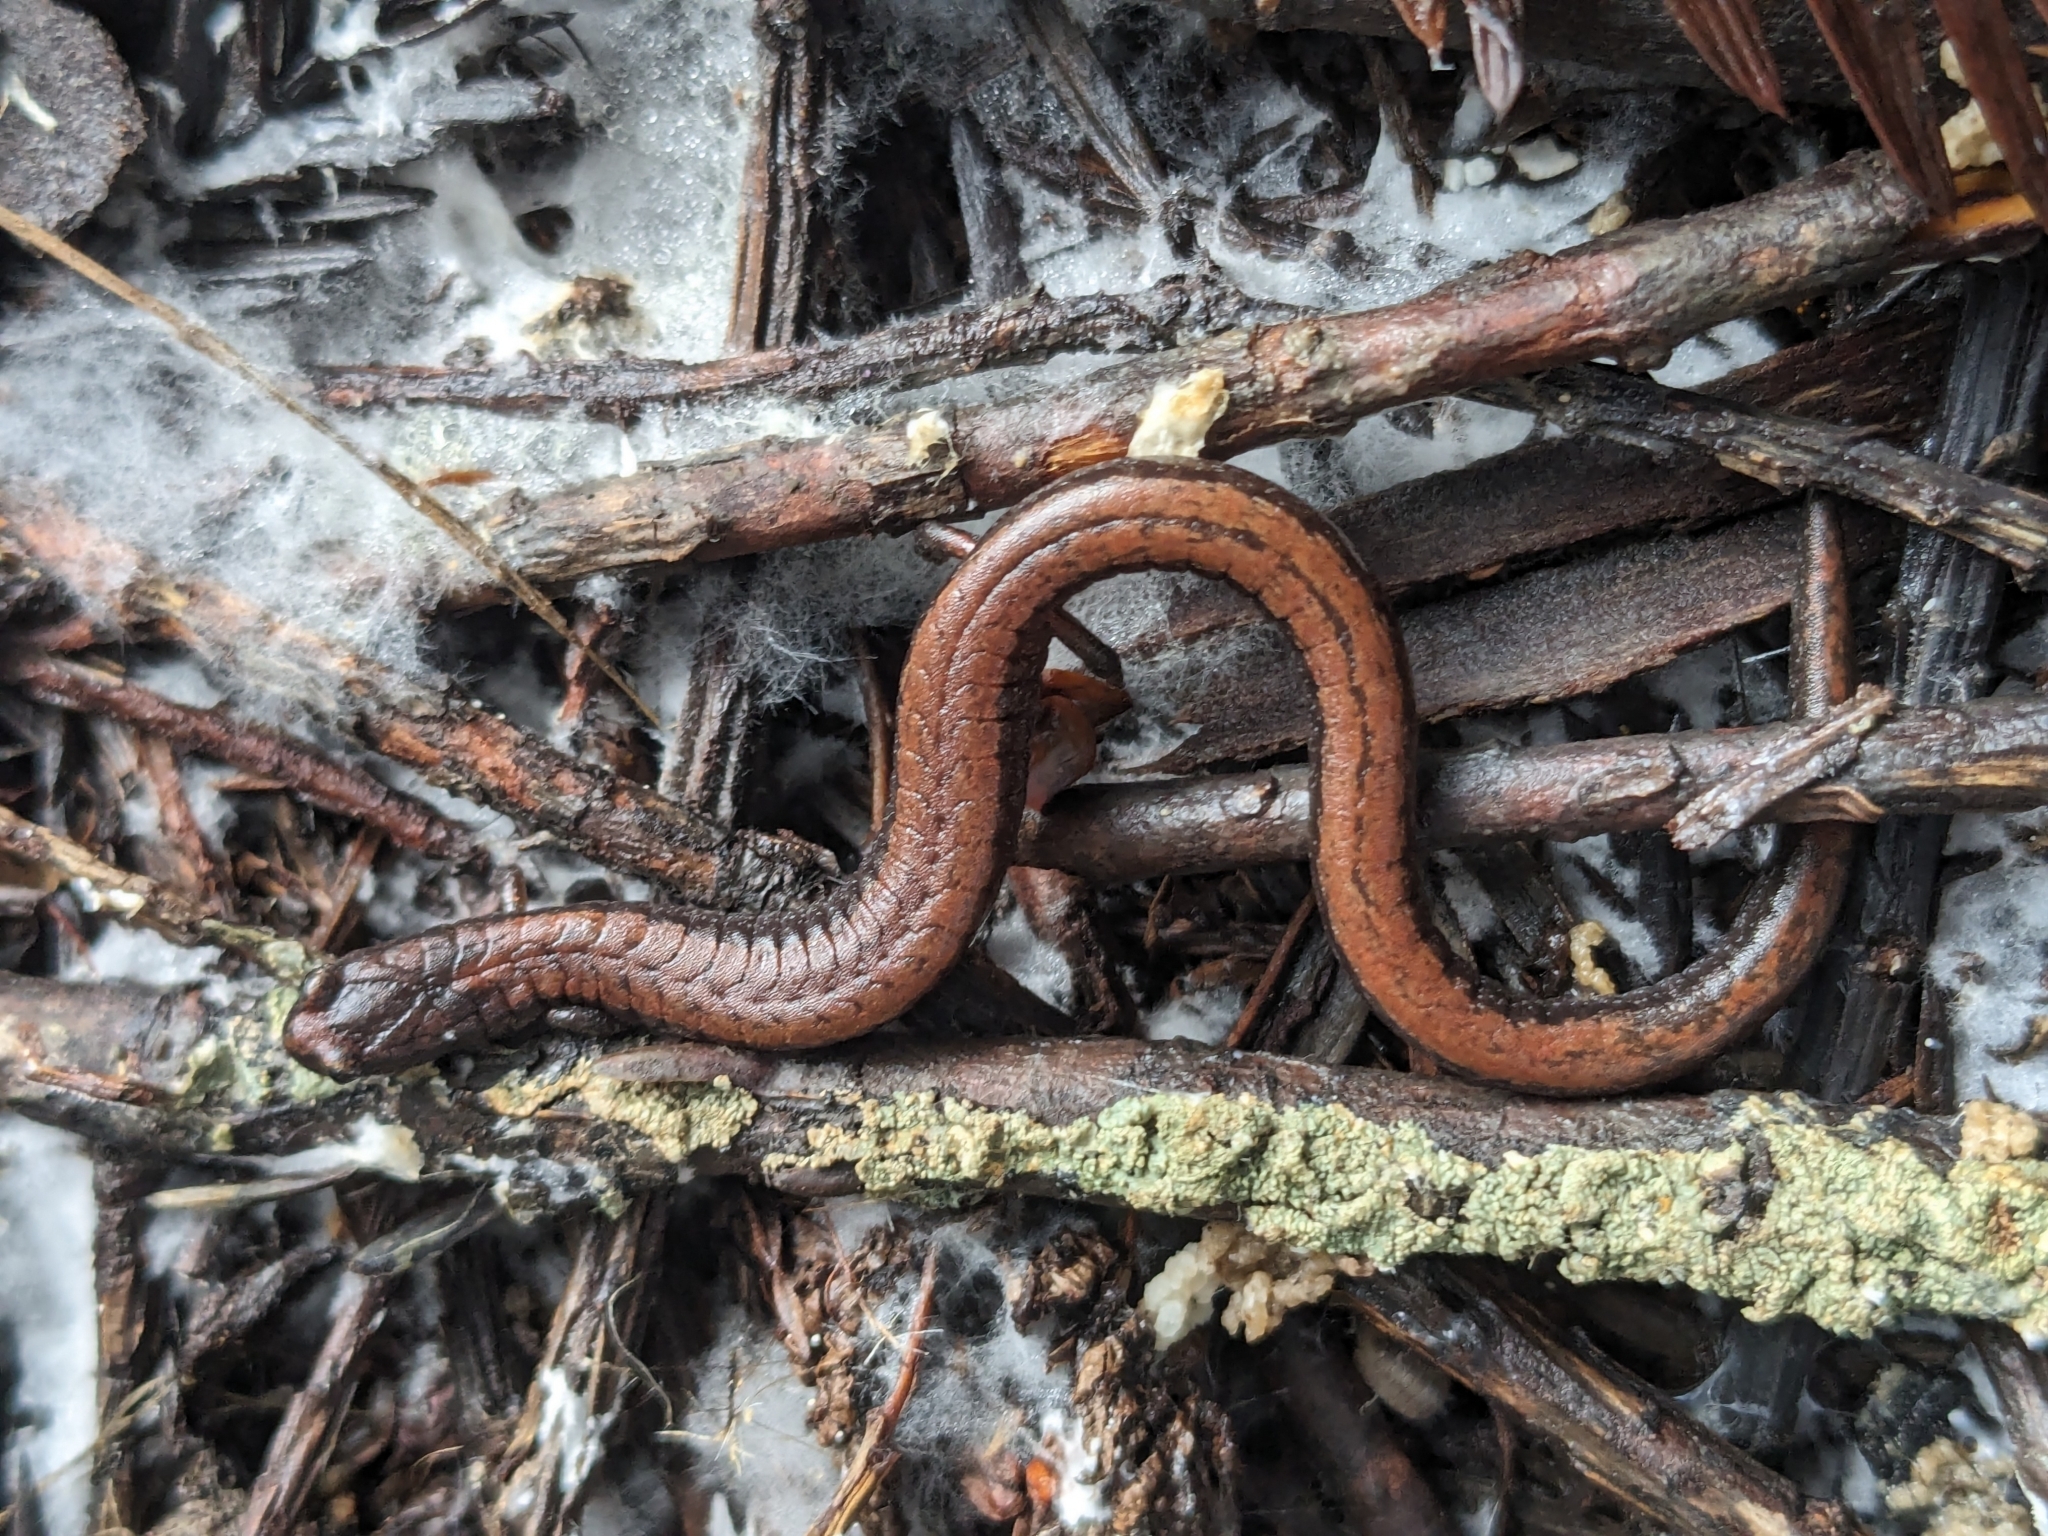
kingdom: Animalia
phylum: Chordata
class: Amphibia
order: Caudata
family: Plethodontidae
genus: Batrachoseps
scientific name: Batrachoseps attenuatus
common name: California slender salamander
